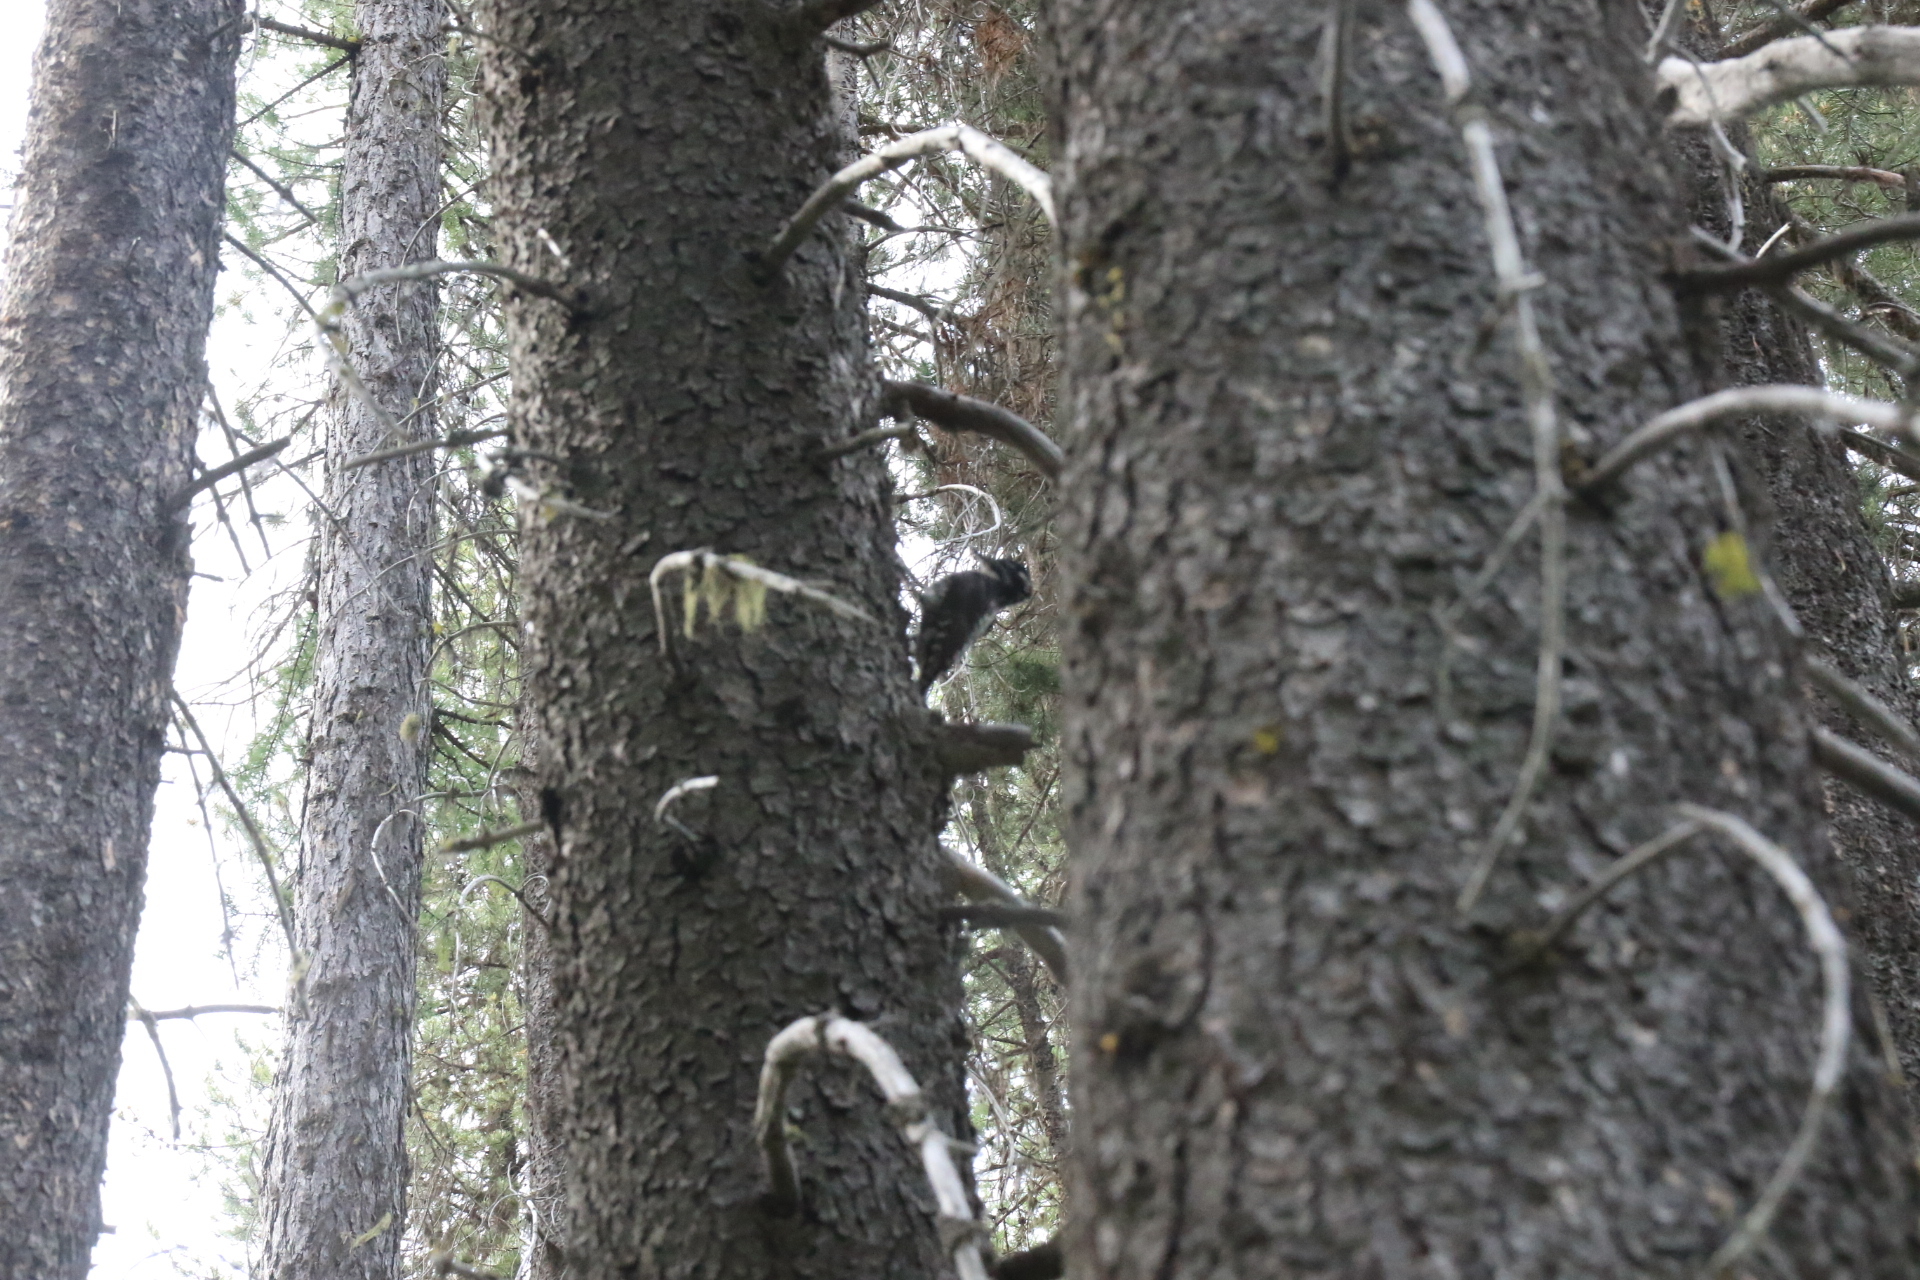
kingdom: Animalia
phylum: Chordata
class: Aves
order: Piciformes
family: Picidae
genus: Picoides
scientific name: Picoides dorsalis
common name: American three-toed woodpecker
